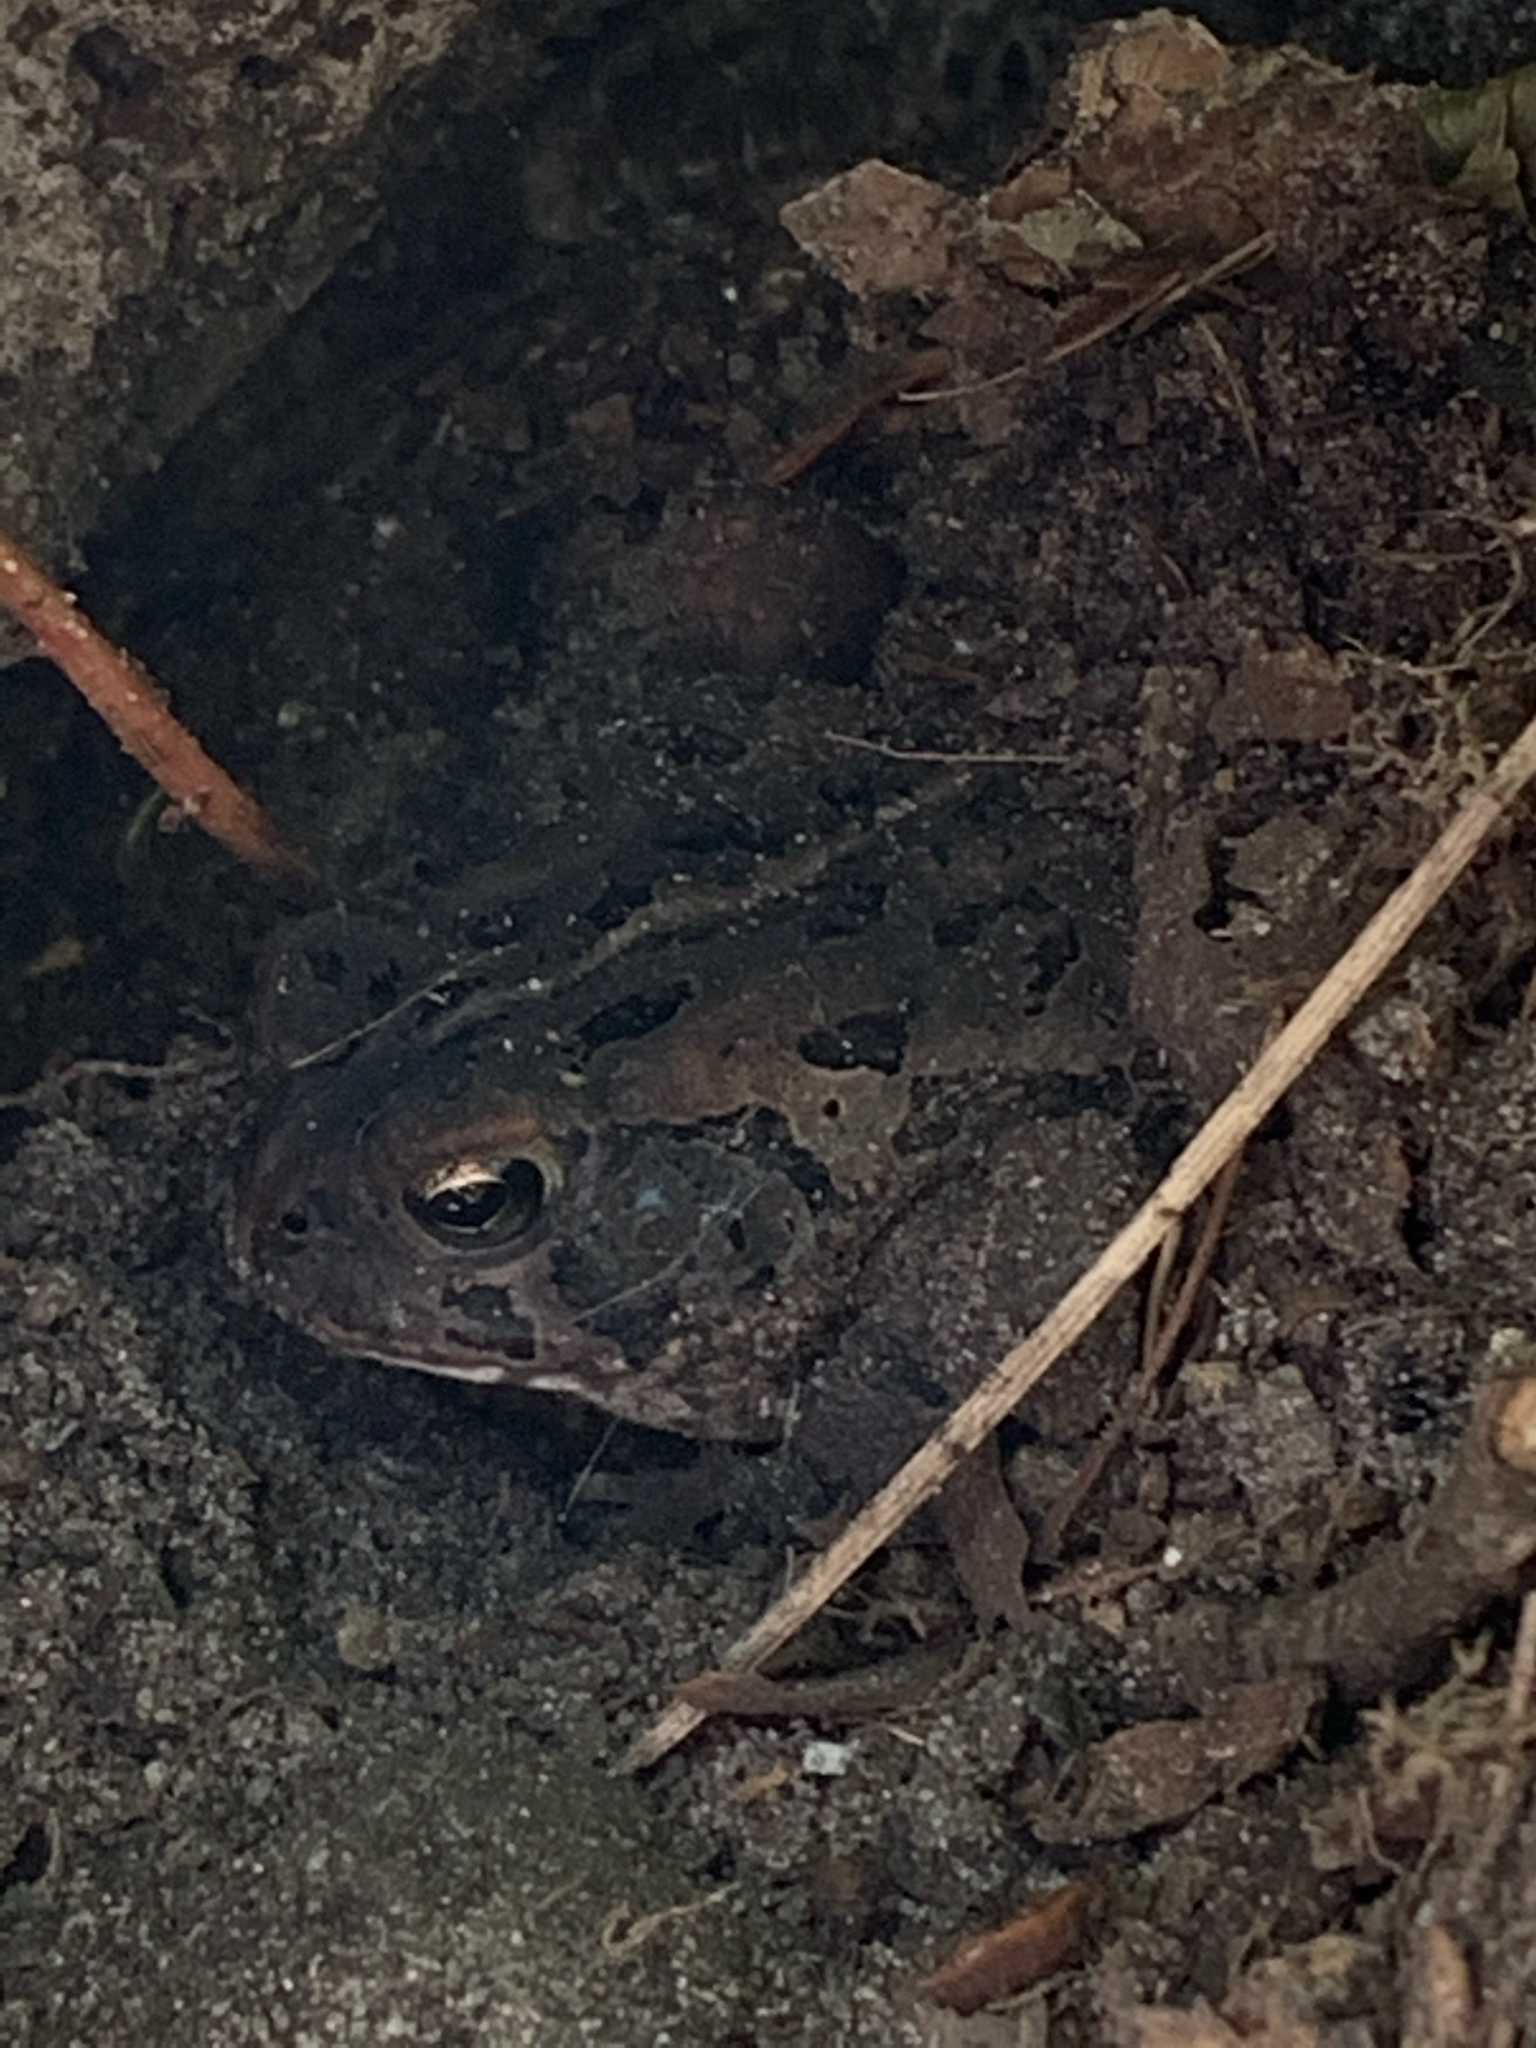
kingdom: Animalia
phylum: Chordata
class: Amphibia
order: Anura
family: Bufonidae
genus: Anaxyrus
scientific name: Anaxyrus fowleri
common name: Fowler's toad
